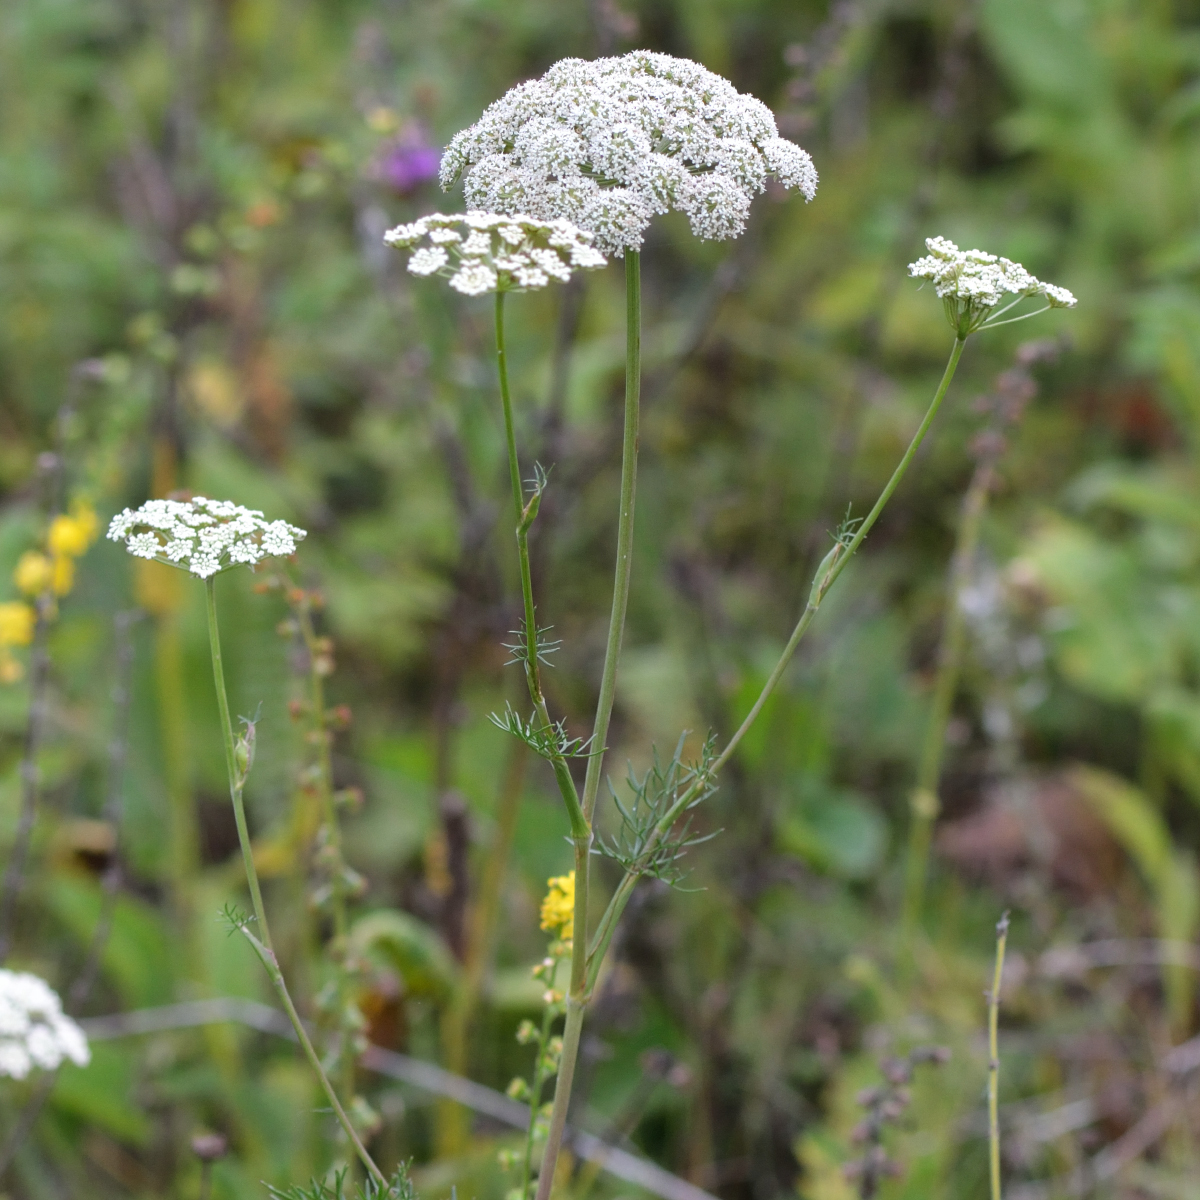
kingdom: Plantae
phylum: Tracheophyta
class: Magnoliopsida
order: Apiales
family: Apiaceae
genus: Seseli
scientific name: Seseli annuum
